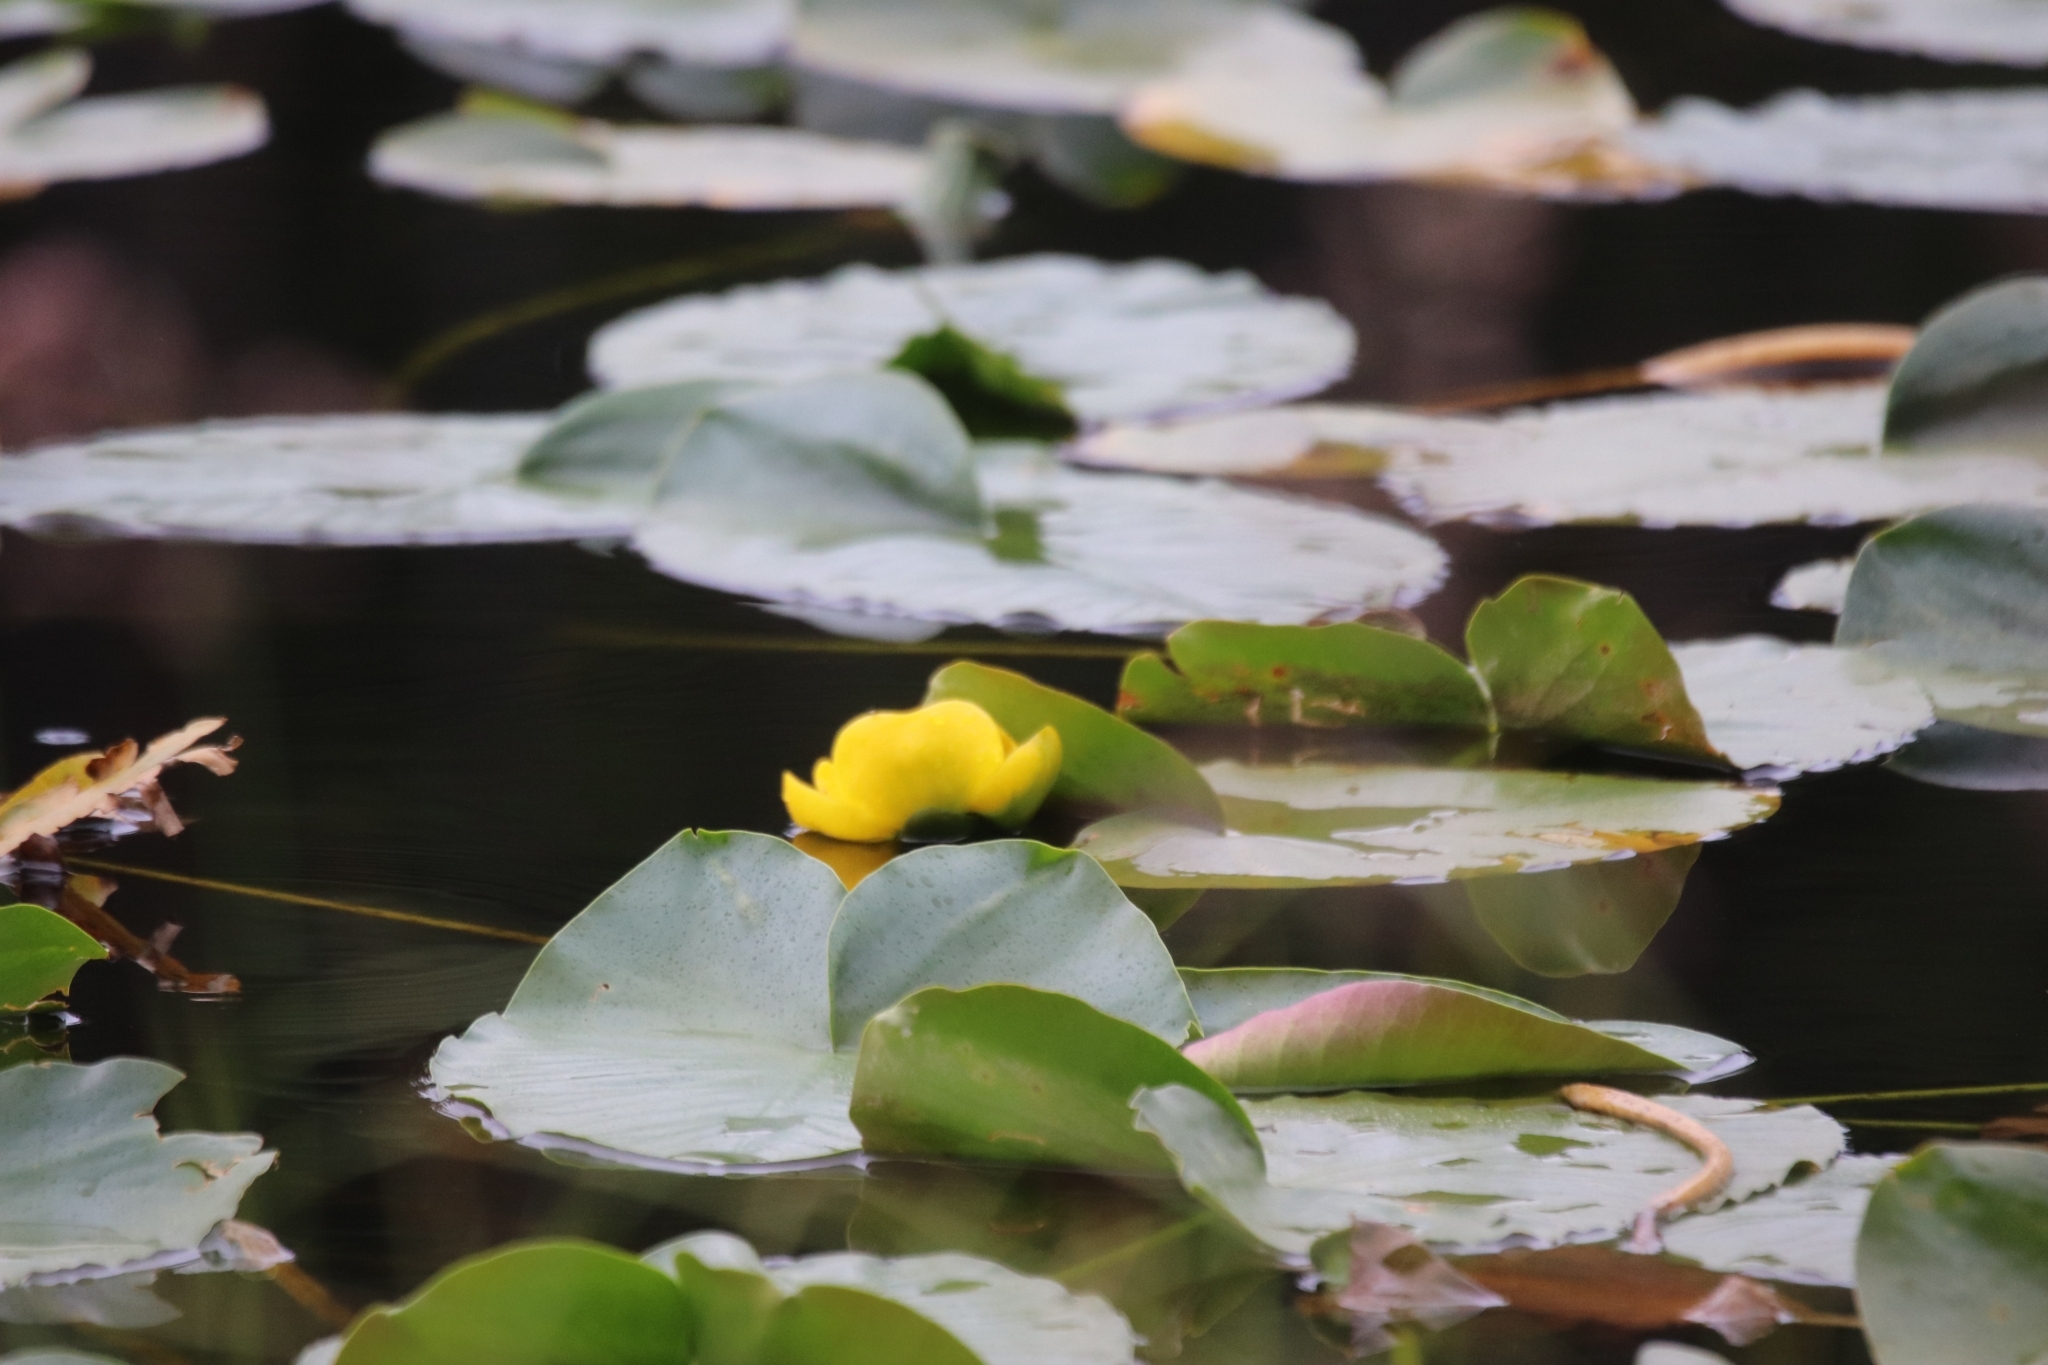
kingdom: Plantae
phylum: Tracheophyta
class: Magnoliopsida
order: Nymphaeales
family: Nymphaeaceae
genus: Nuphar
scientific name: Nuphar polysepala
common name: Rocky mountain cow-lily
